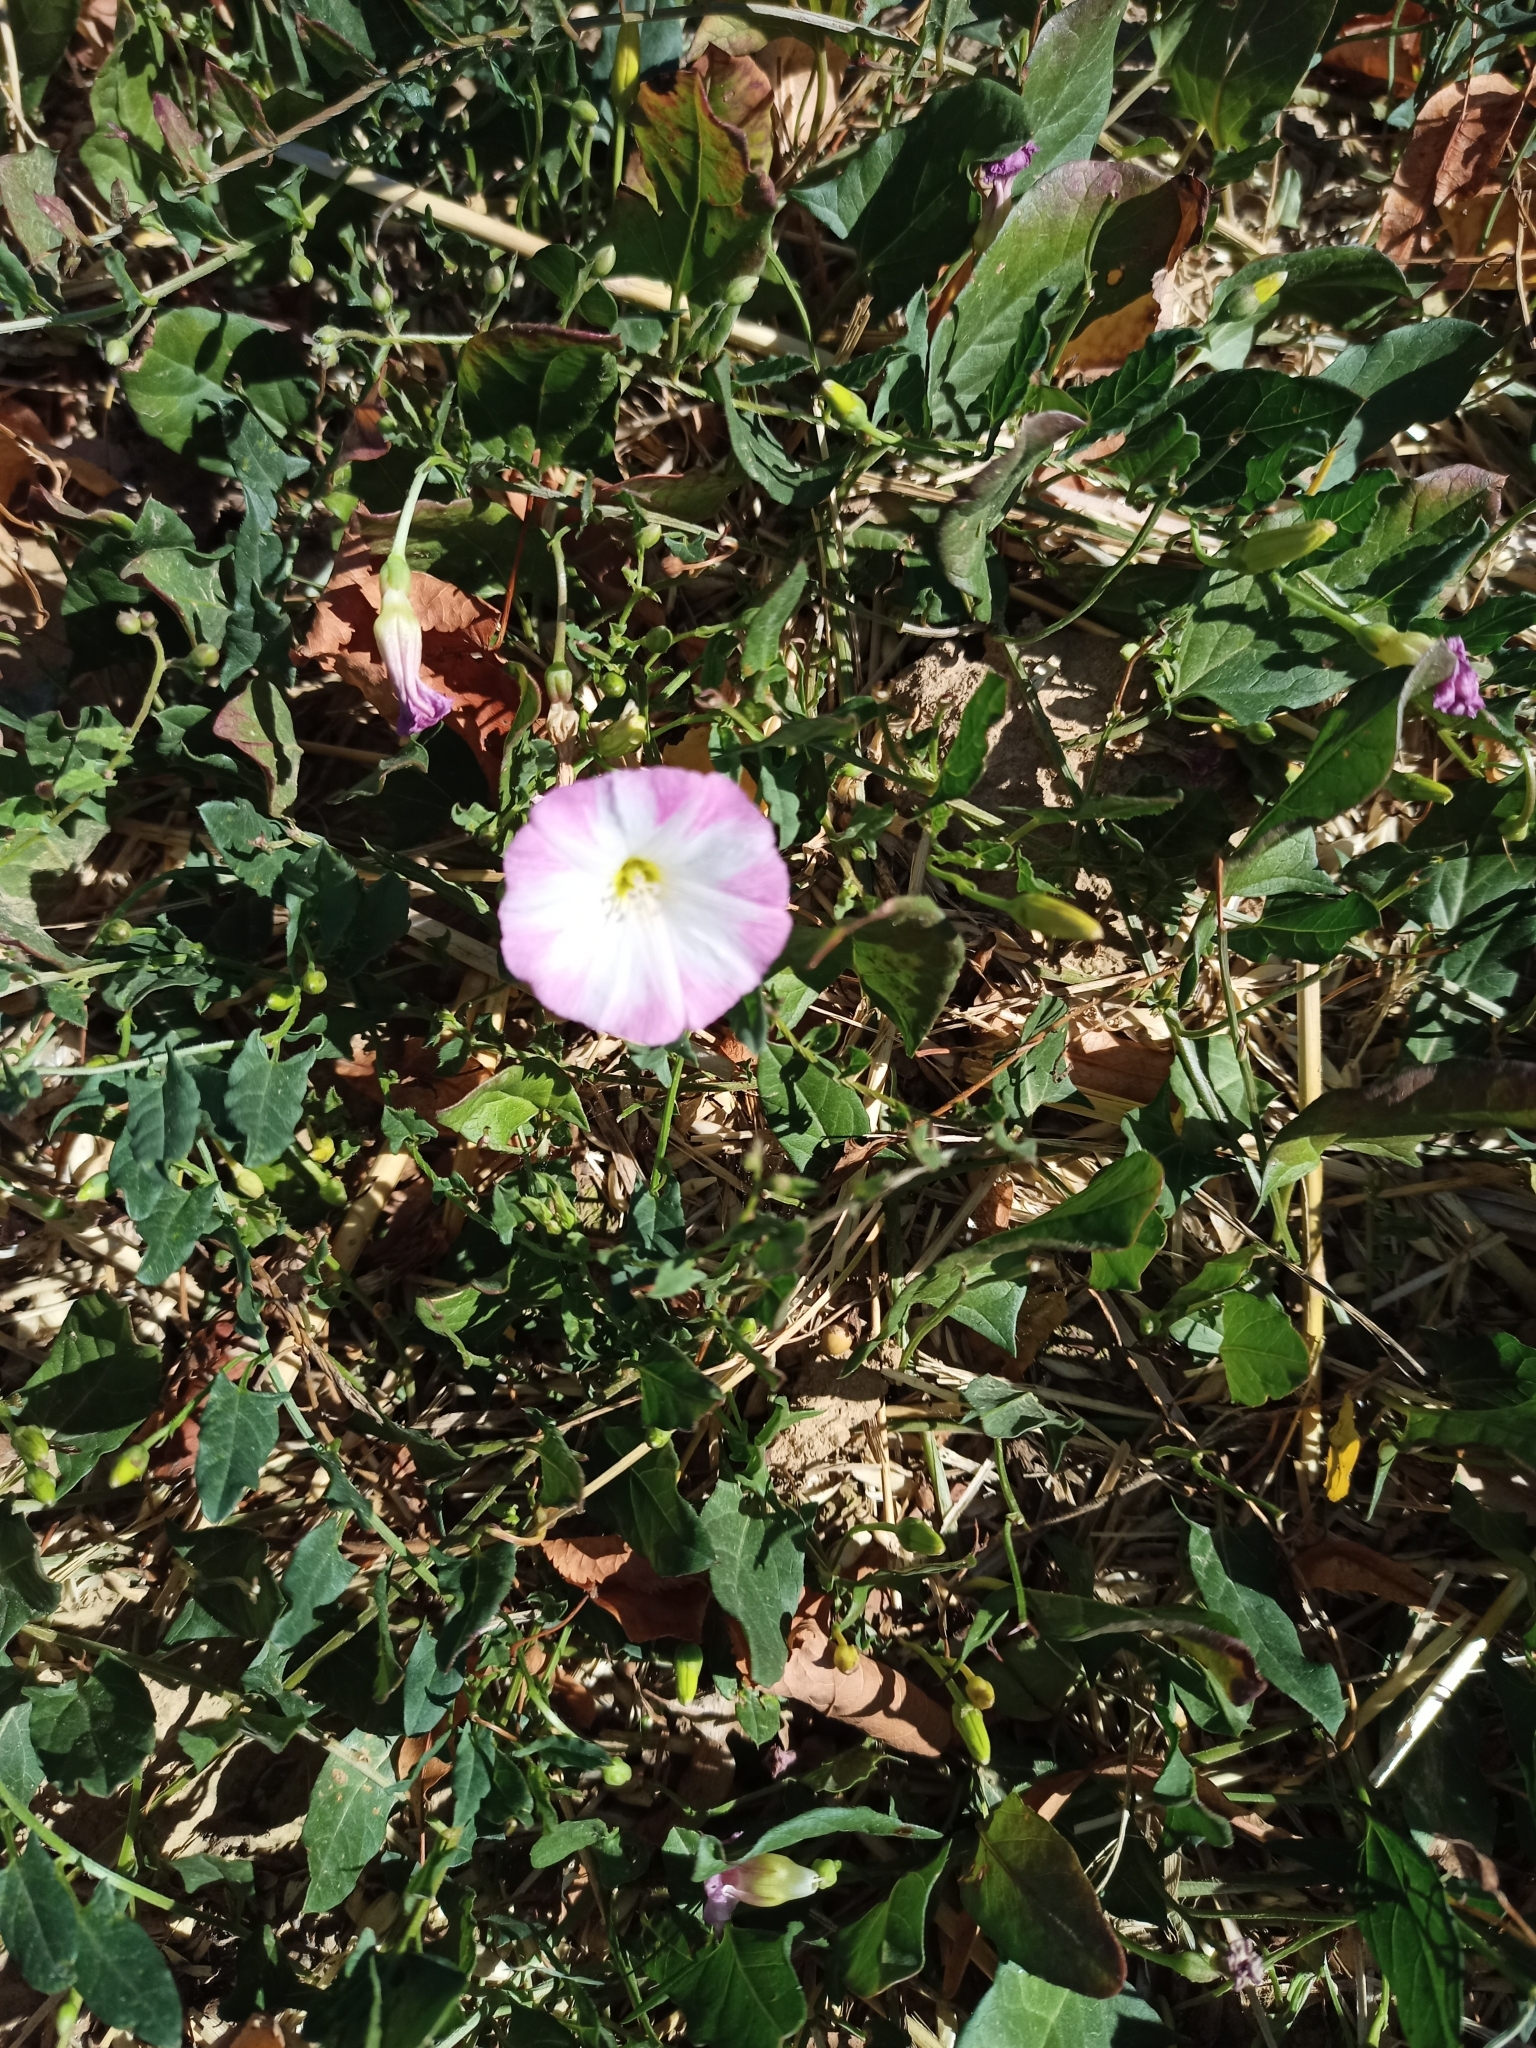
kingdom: Plantae
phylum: Tracheophyta
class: Magnoliopsida
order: Solanales
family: Convolvulaceae
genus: Convolvulus
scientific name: Convolvulus arvensis
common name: Field bindweed
